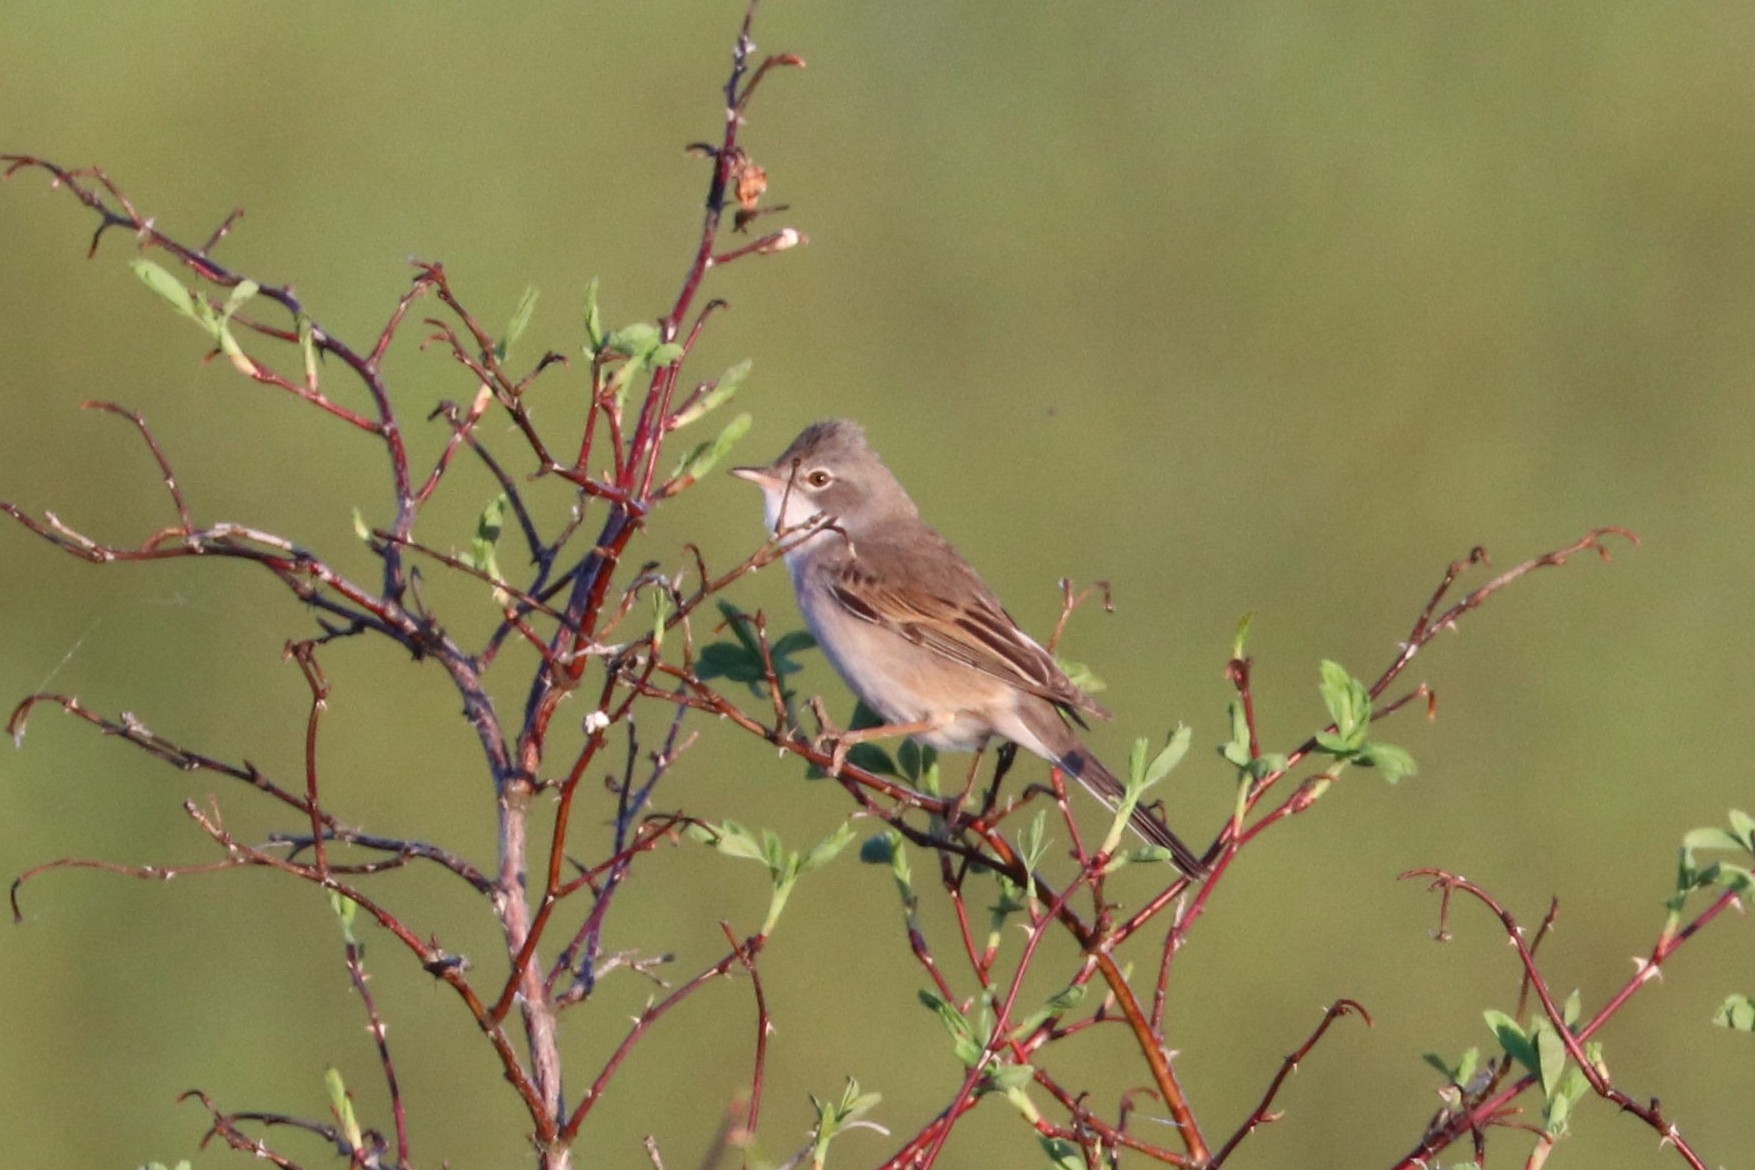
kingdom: Animalia
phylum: Chordata
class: Aves
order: Passeriformes
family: Sylviidae
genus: Sylvia
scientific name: Sylvia communis
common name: Common whitethroat
